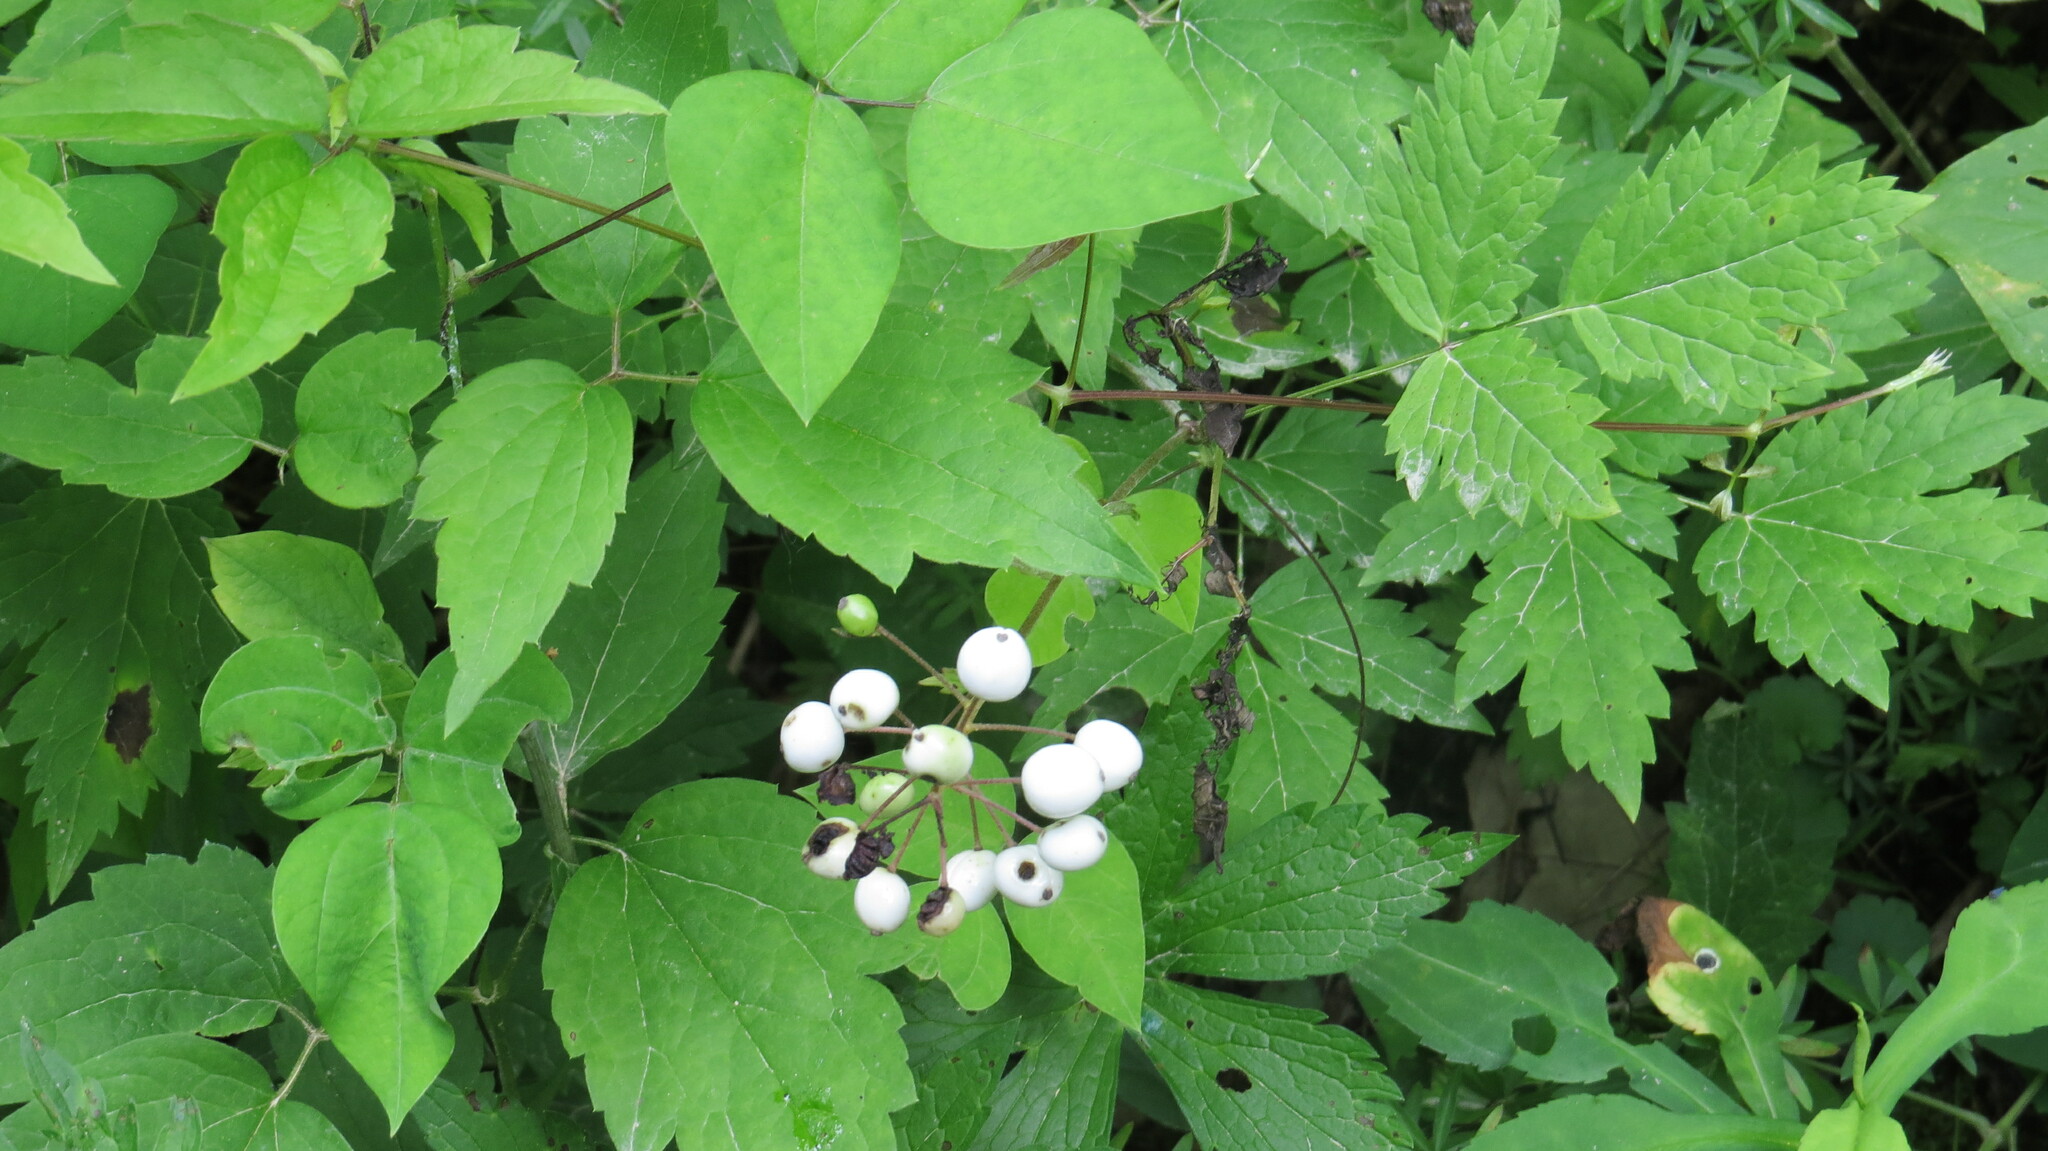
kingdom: Plantae
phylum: Tracheophyta
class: Magnoliopsida
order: Ranunculales
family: Ranunculaceae
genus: Actaea
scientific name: Actaea rubra
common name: Red baneberry
